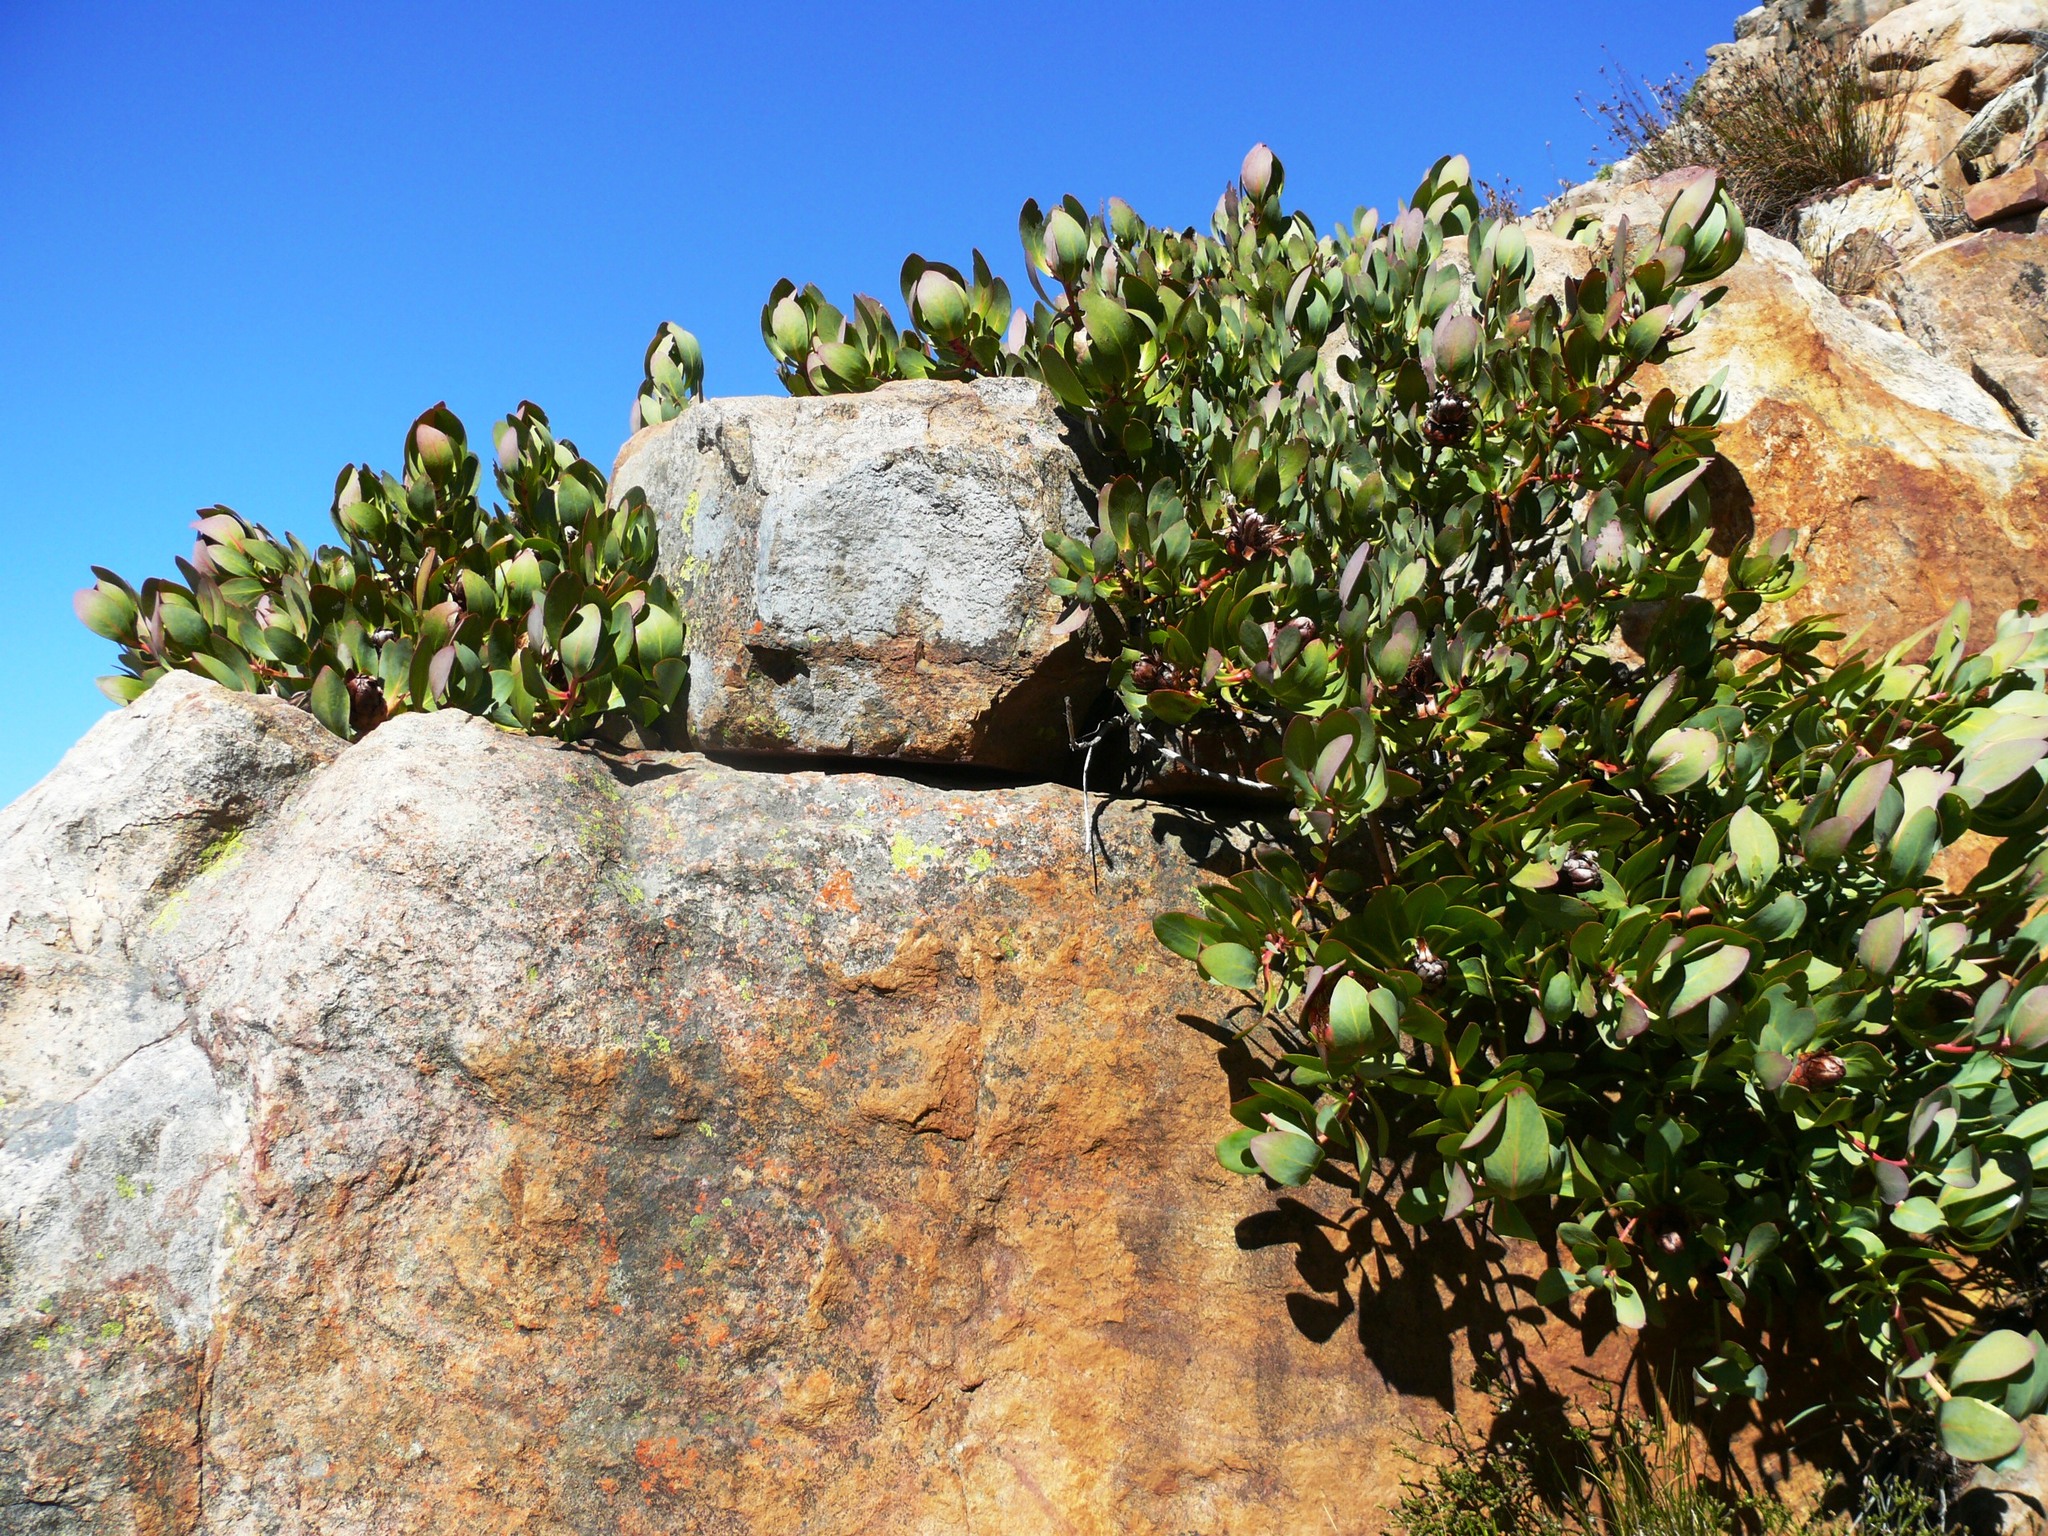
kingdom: Plantae
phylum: Tracheophyta
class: Magnoliopsida
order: Proteales
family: Proteaceae
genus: Protea
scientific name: Protea recondita
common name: Hidden sugarbush
